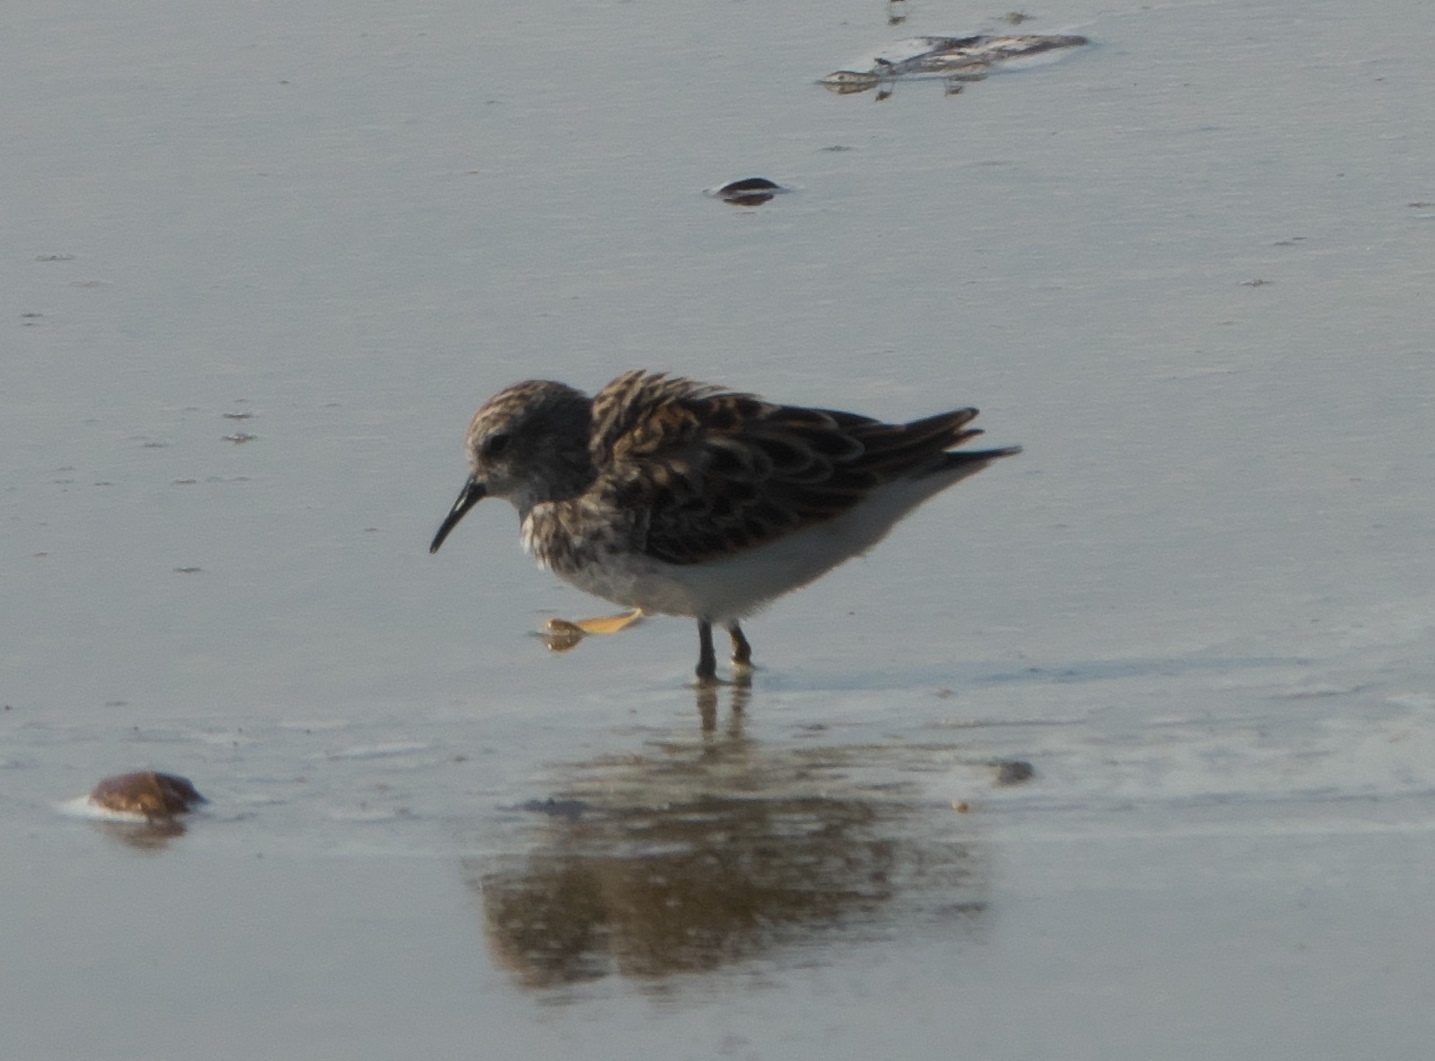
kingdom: Animalia
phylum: Chordata
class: Aves
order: Charadriiformes
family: Scolopacidae
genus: Calidris
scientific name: Calidris minutilla
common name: Least sandpiper
